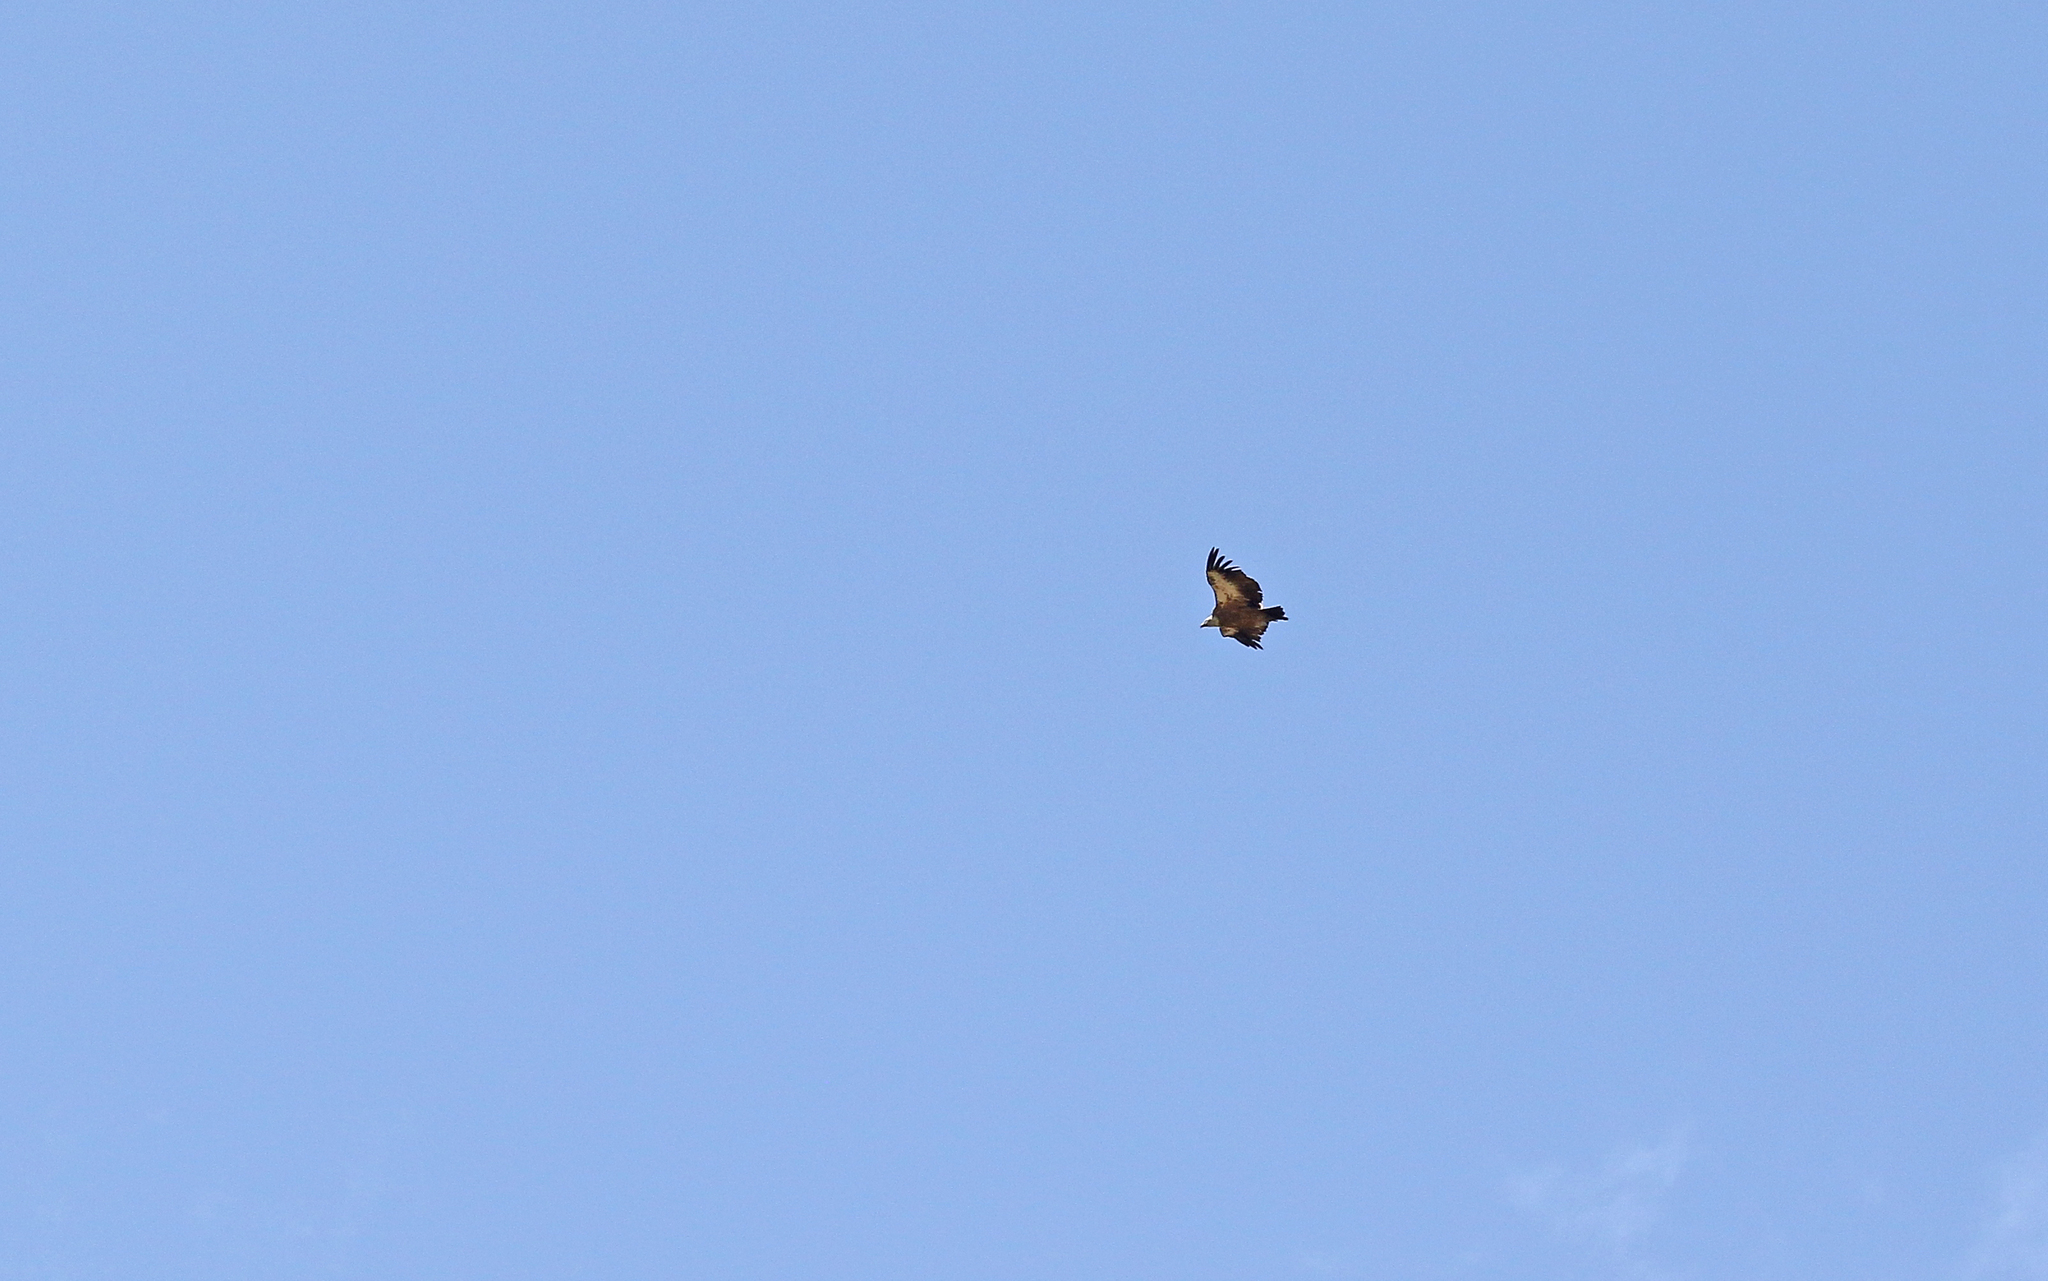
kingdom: Animalia
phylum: Chordata
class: Aves
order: Accipitriformes
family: Accipitridae
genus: Gyps
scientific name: Gyps fulvus
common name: Griffon vulture
